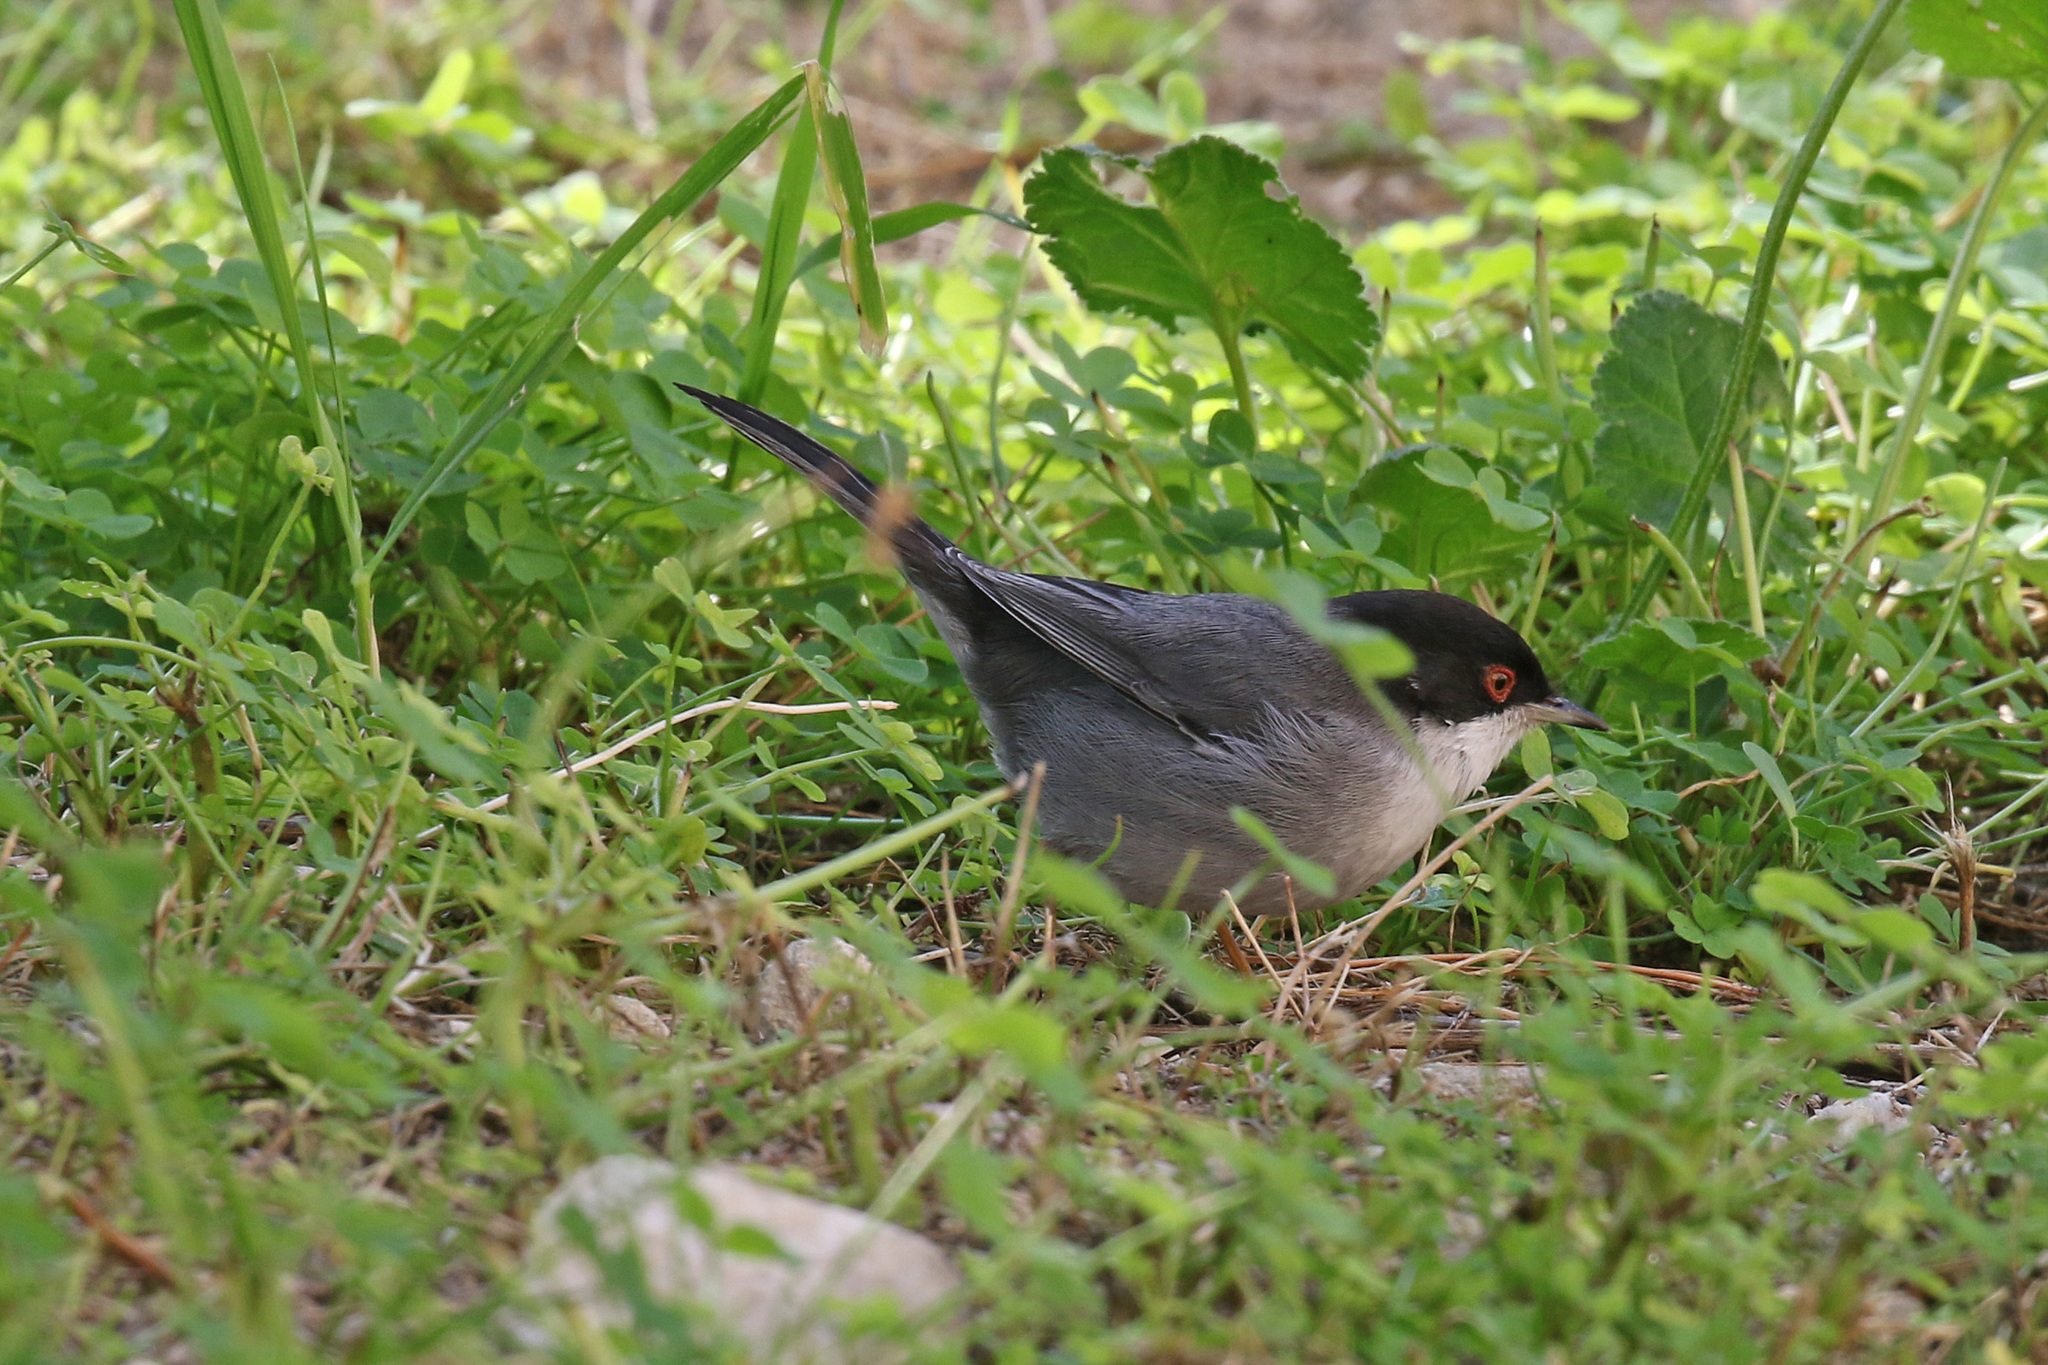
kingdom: Animalia
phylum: Chordata
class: Aves
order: Passeriformes
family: Sylviidae
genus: Curruca
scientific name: Curruca melanocephala
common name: Sardinian warbler
